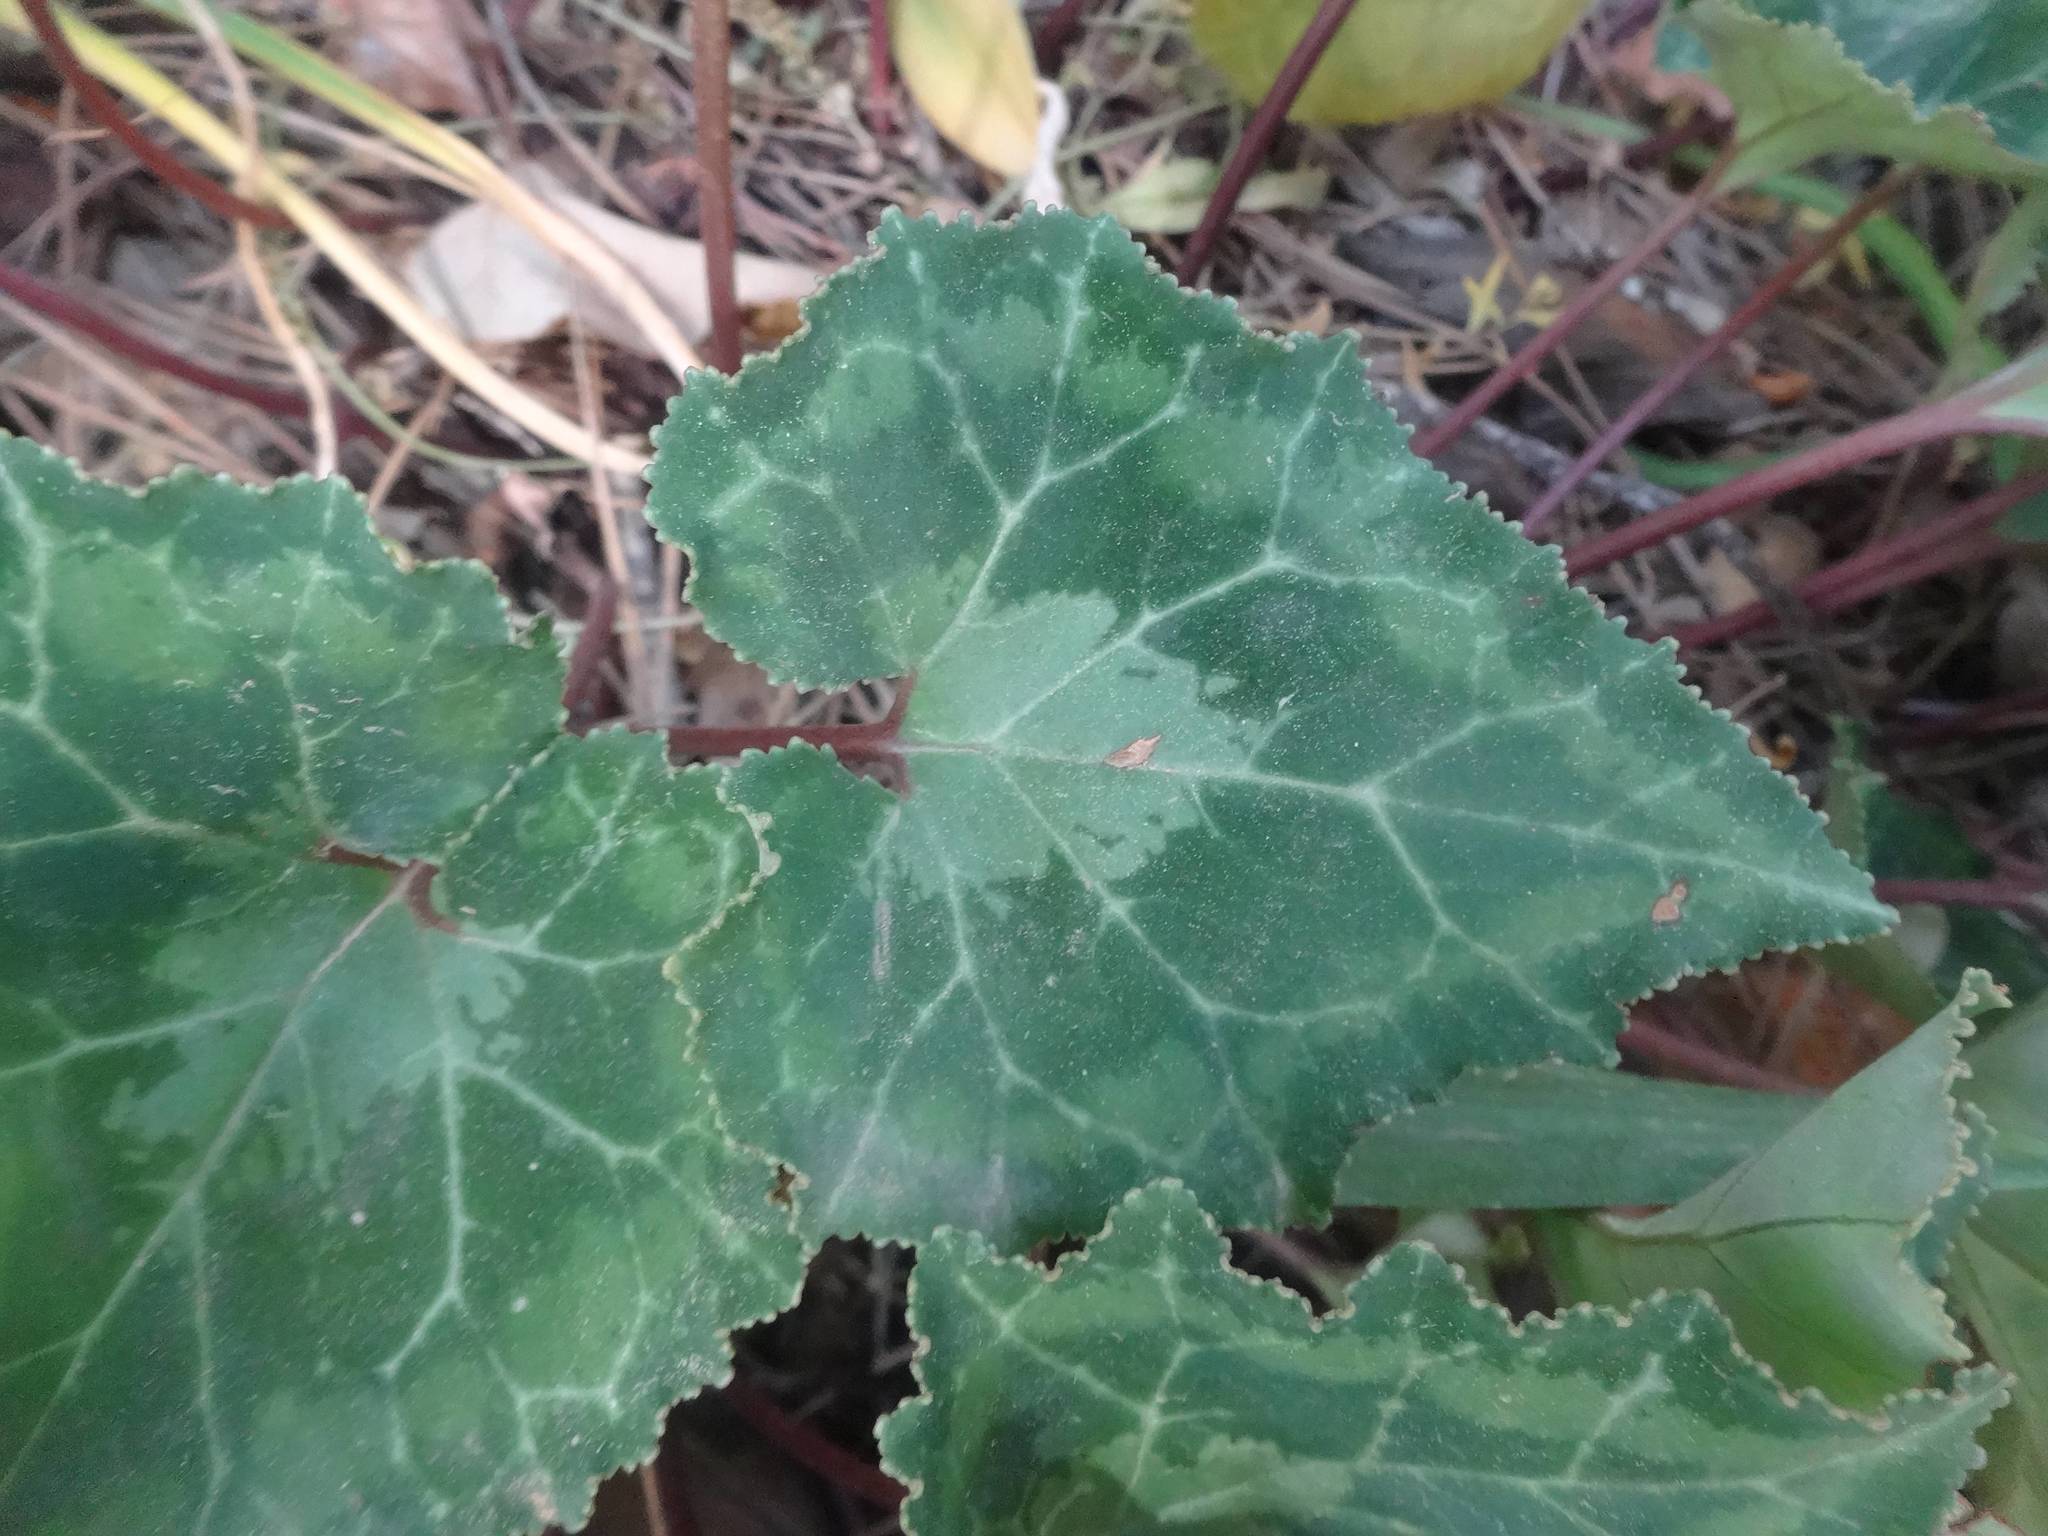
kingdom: Plantae
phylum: Tracheophyta
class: Magnoliopsida
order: Ericales
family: Primulaceae
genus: Cyclamen
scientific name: Cyclamen graecum
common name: Greek cyclamen
